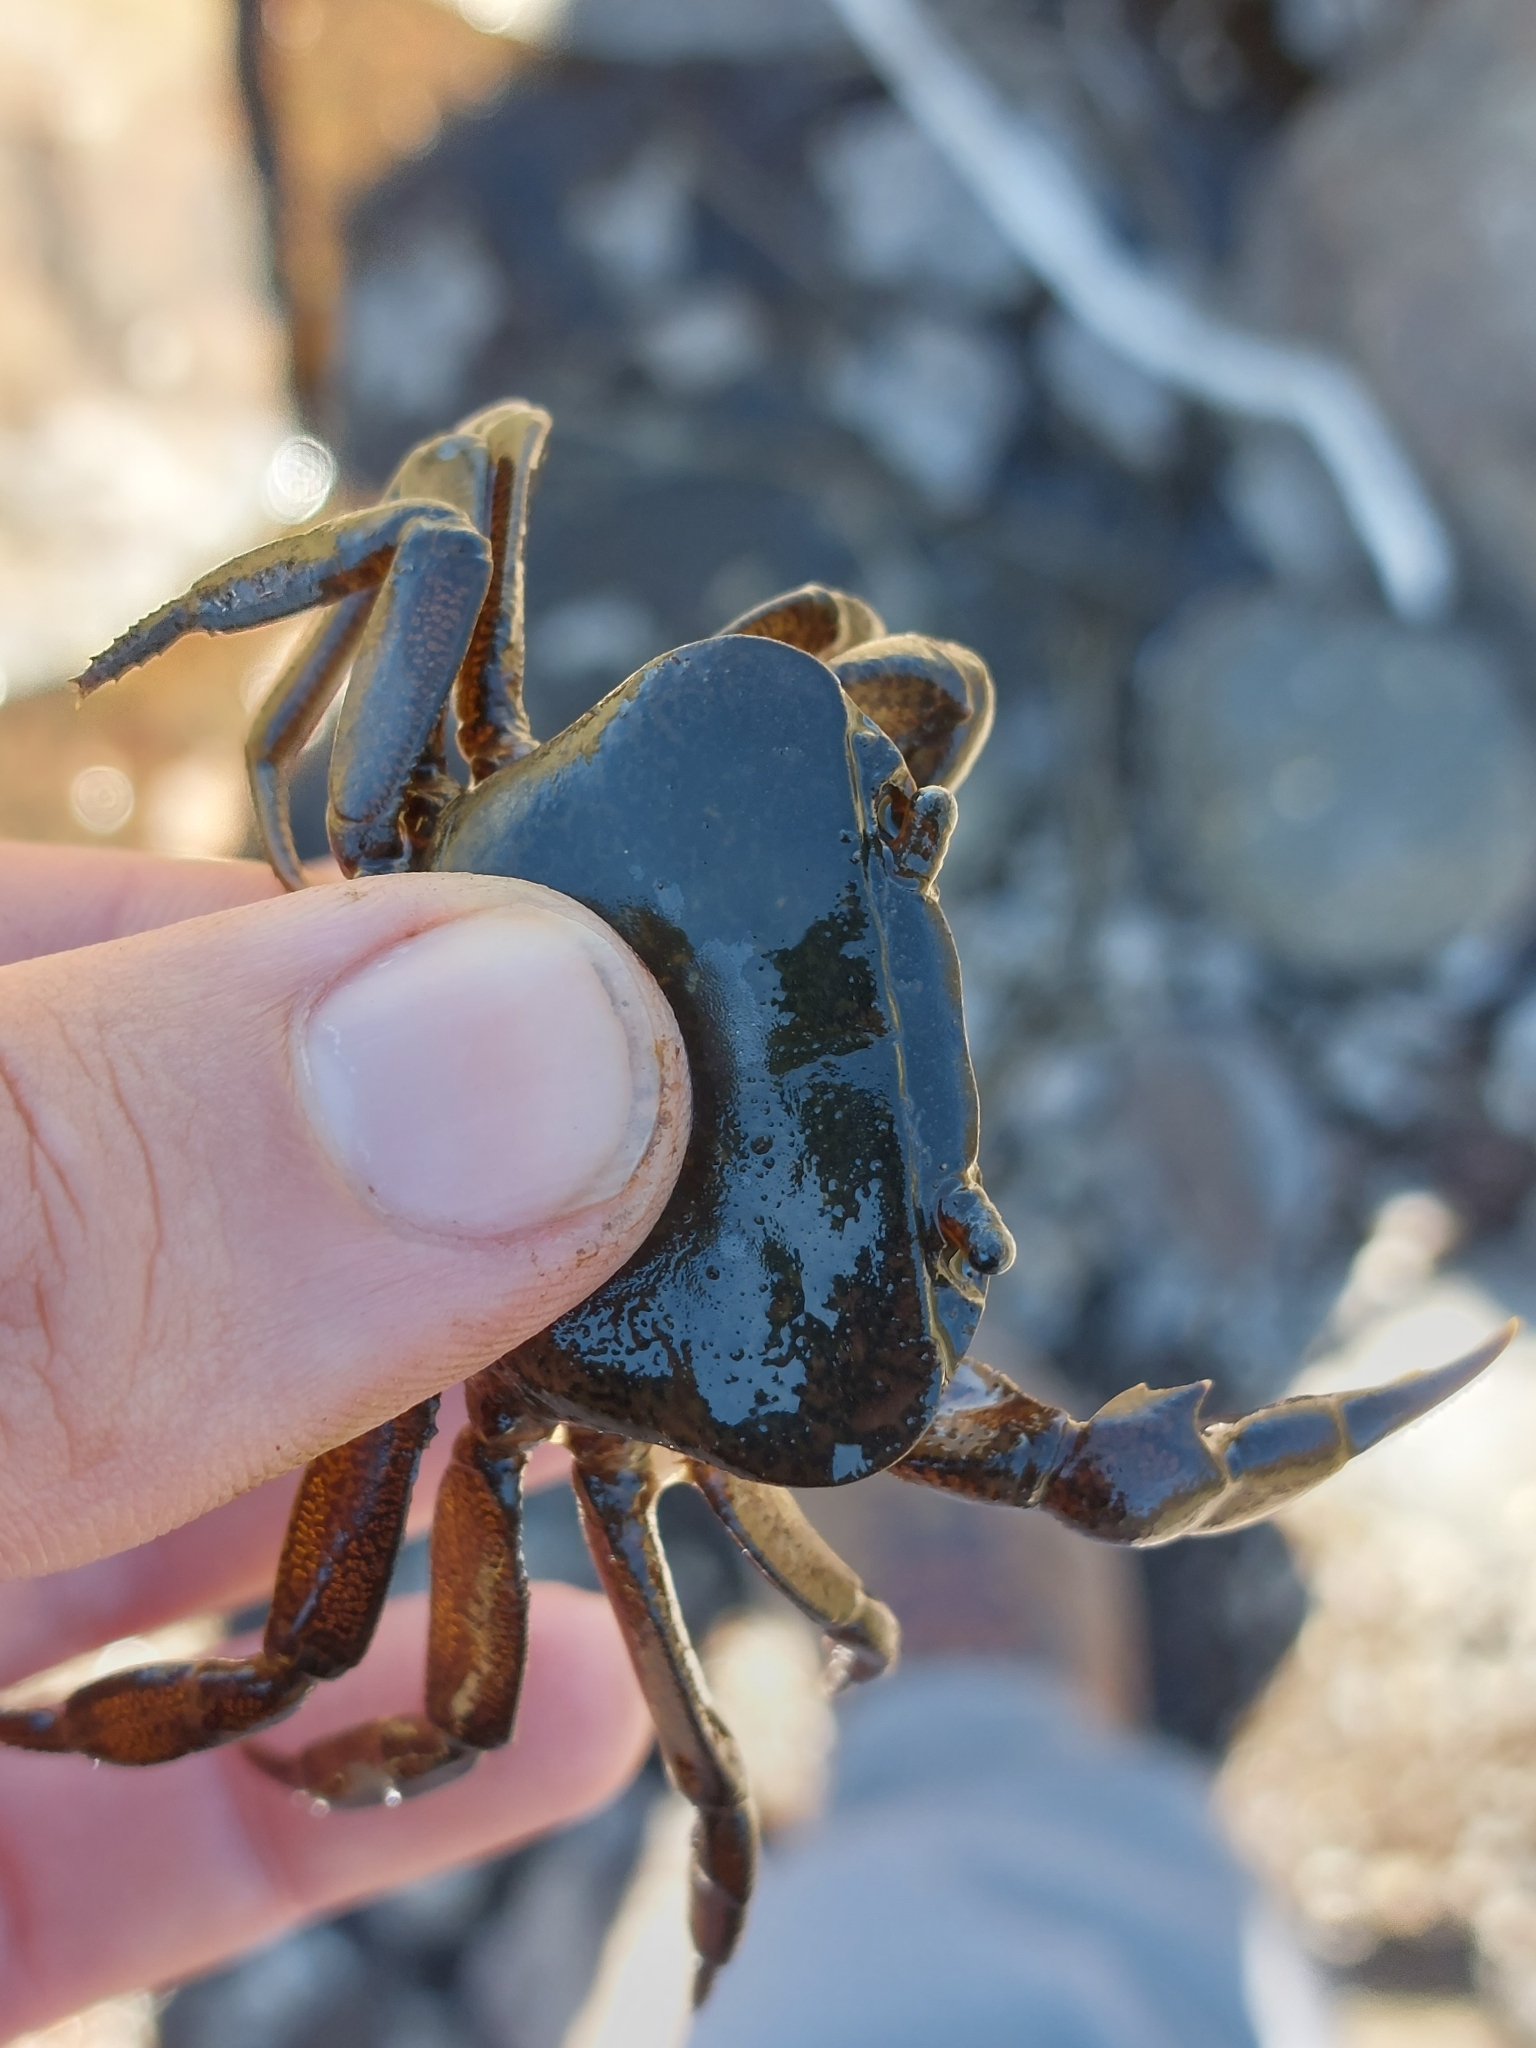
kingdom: Animalia
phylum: Arthropoda
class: Malacostraca
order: Decapoda
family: Potamonautidae
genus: Potamonautes
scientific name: Potamonautes depressus
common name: Flat river crab
